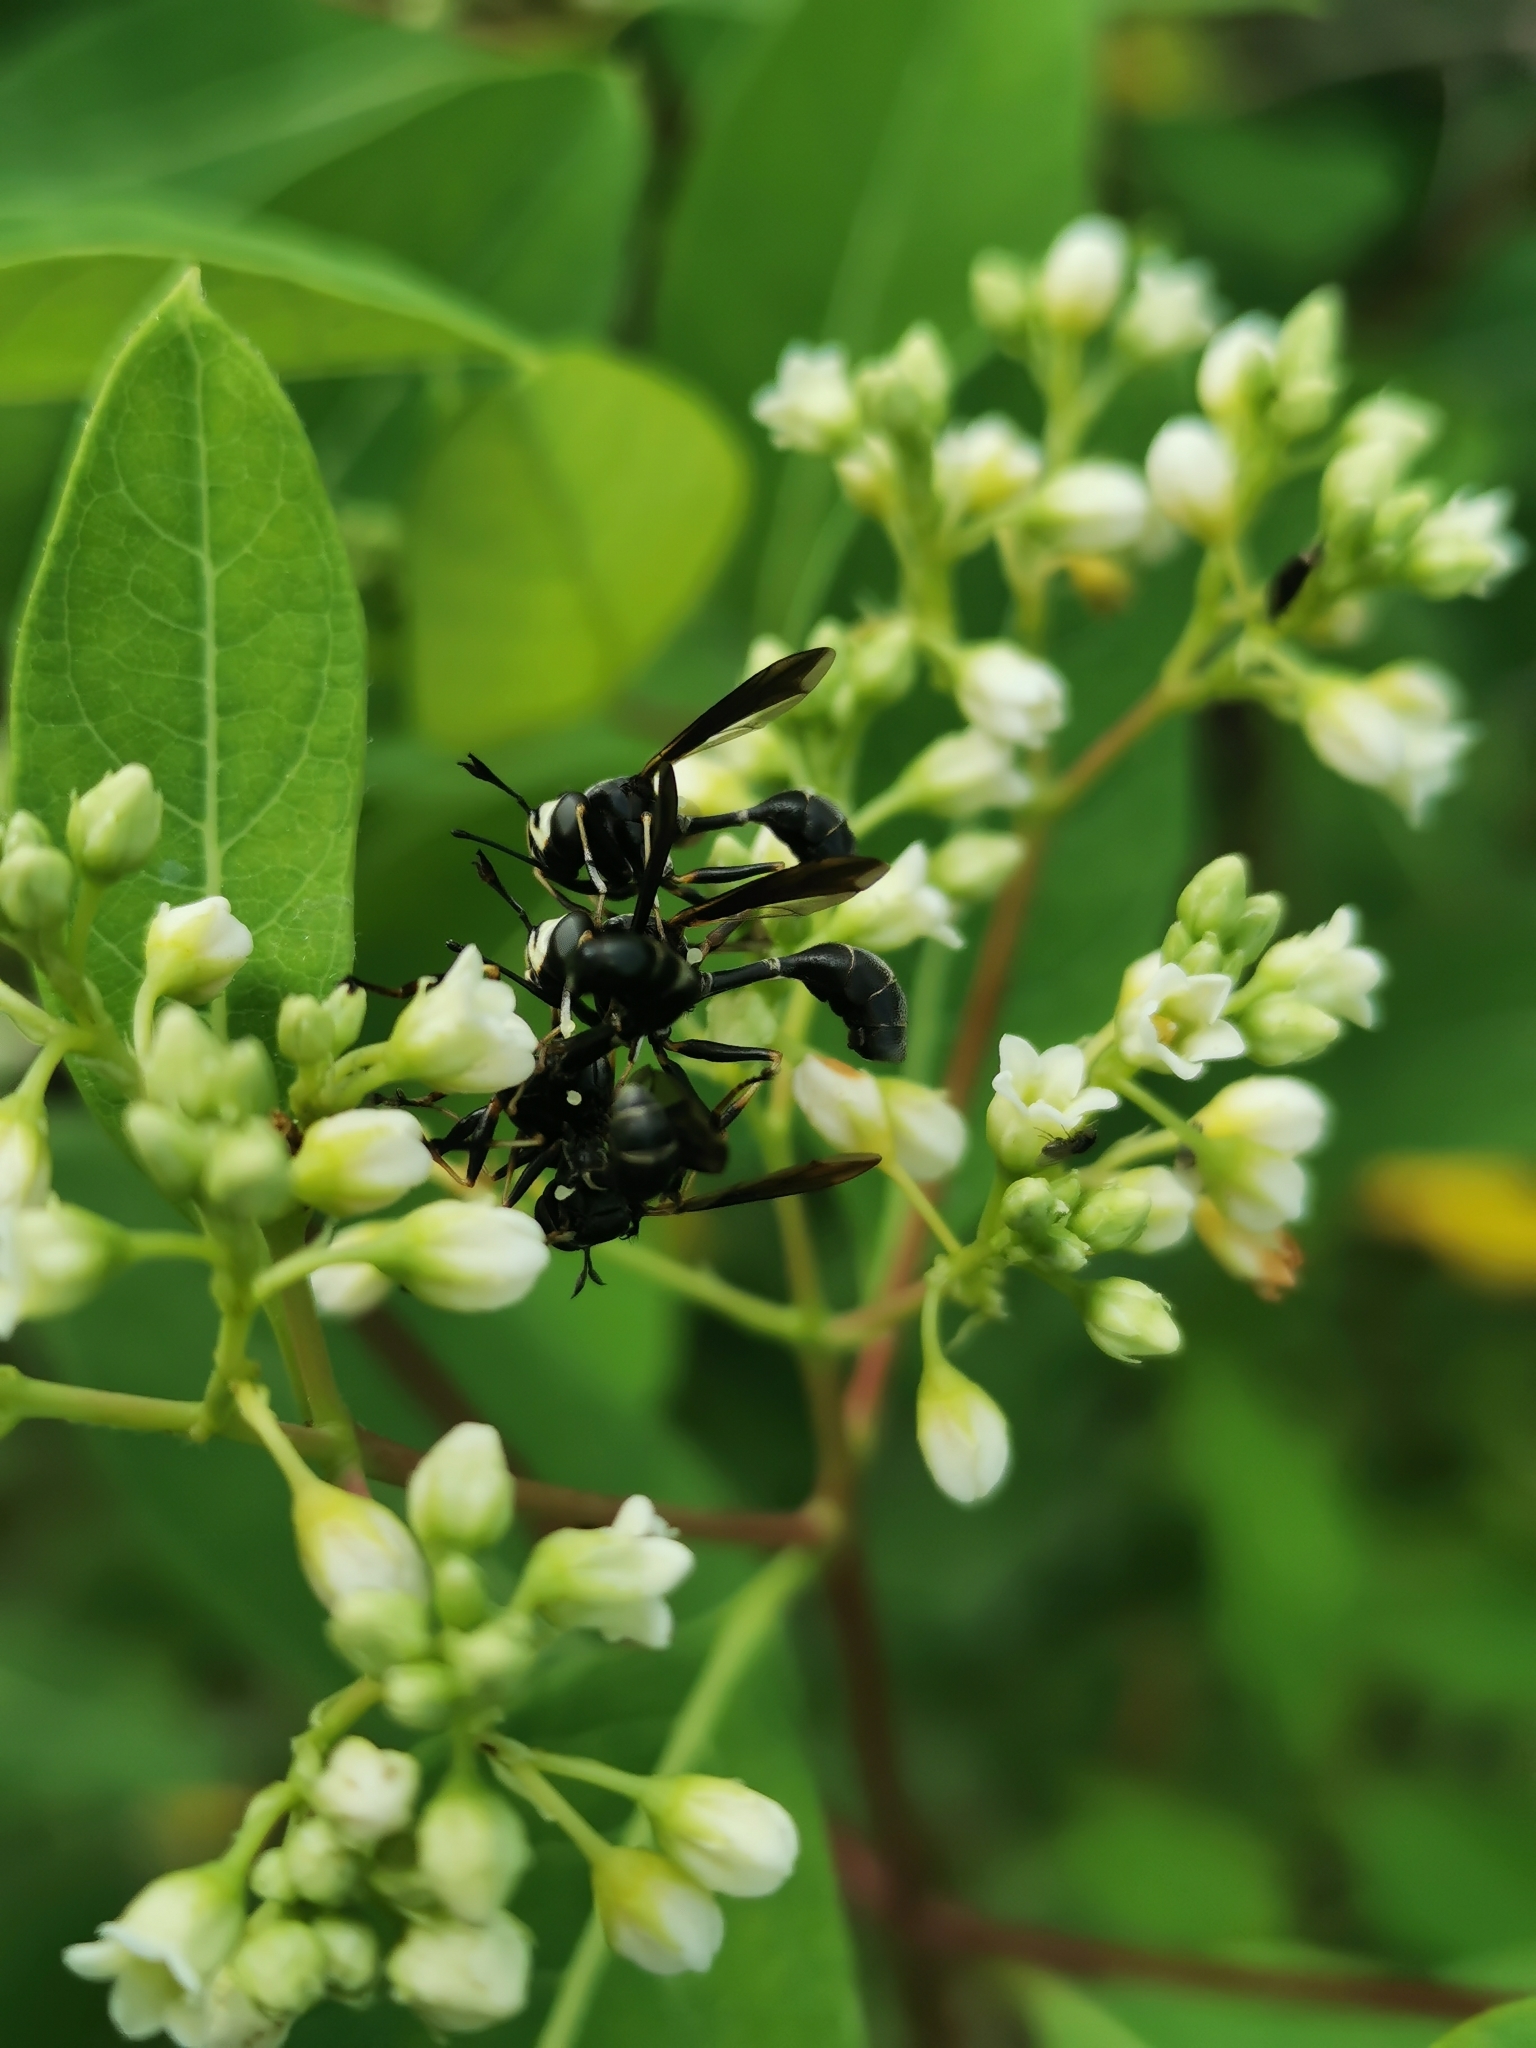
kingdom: Animalia
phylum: Arthropoda
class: Insecta
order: Diptera
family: Conopidae
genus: Physocephala
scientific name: Physocephala tibialis
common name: Common eastern physocephala
